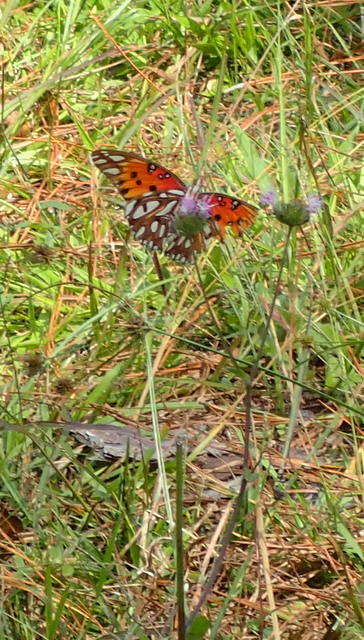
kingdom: Animalia
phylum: Arthropoda
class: Insecta
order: Lepidoptera
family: Nymphalidae
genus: Dione
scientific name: Dione vanillae
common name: Gulf fritillary
